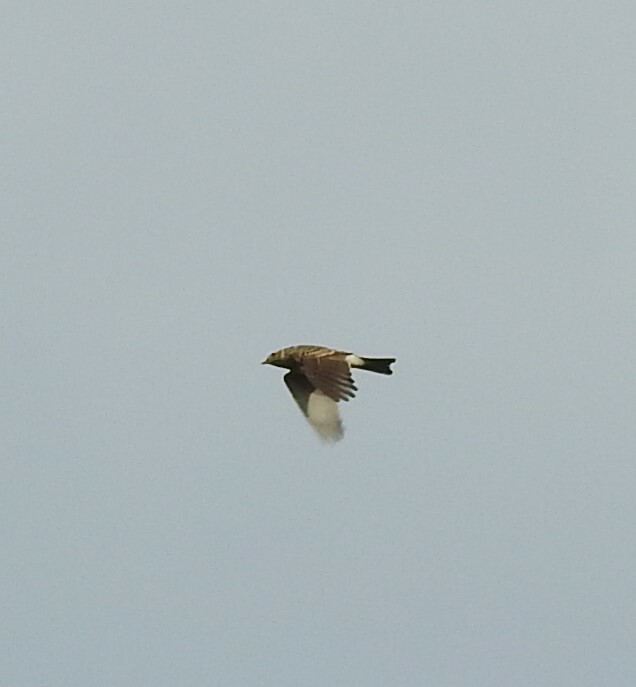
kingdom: Animalia
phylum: Chordata
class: Aves
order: Passeriformes
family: Alaudidae
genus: Alauda
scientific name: Alauda arvensis
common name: Eurasian skylark
